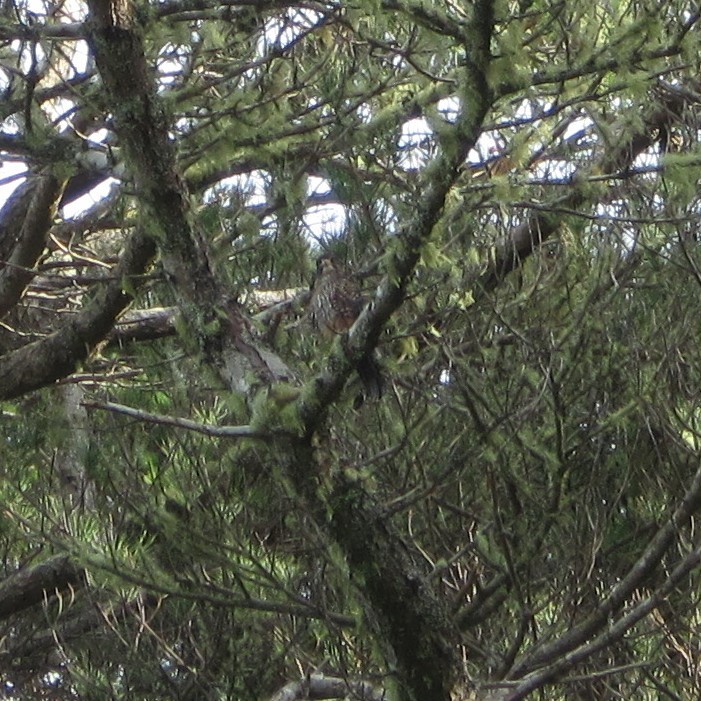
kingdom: Animalia
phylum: Chordata
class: Aves
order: Falconiformes
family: Falconidae
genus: Falco
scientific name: Falco novaeseelandiae
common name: New zealand falcon
